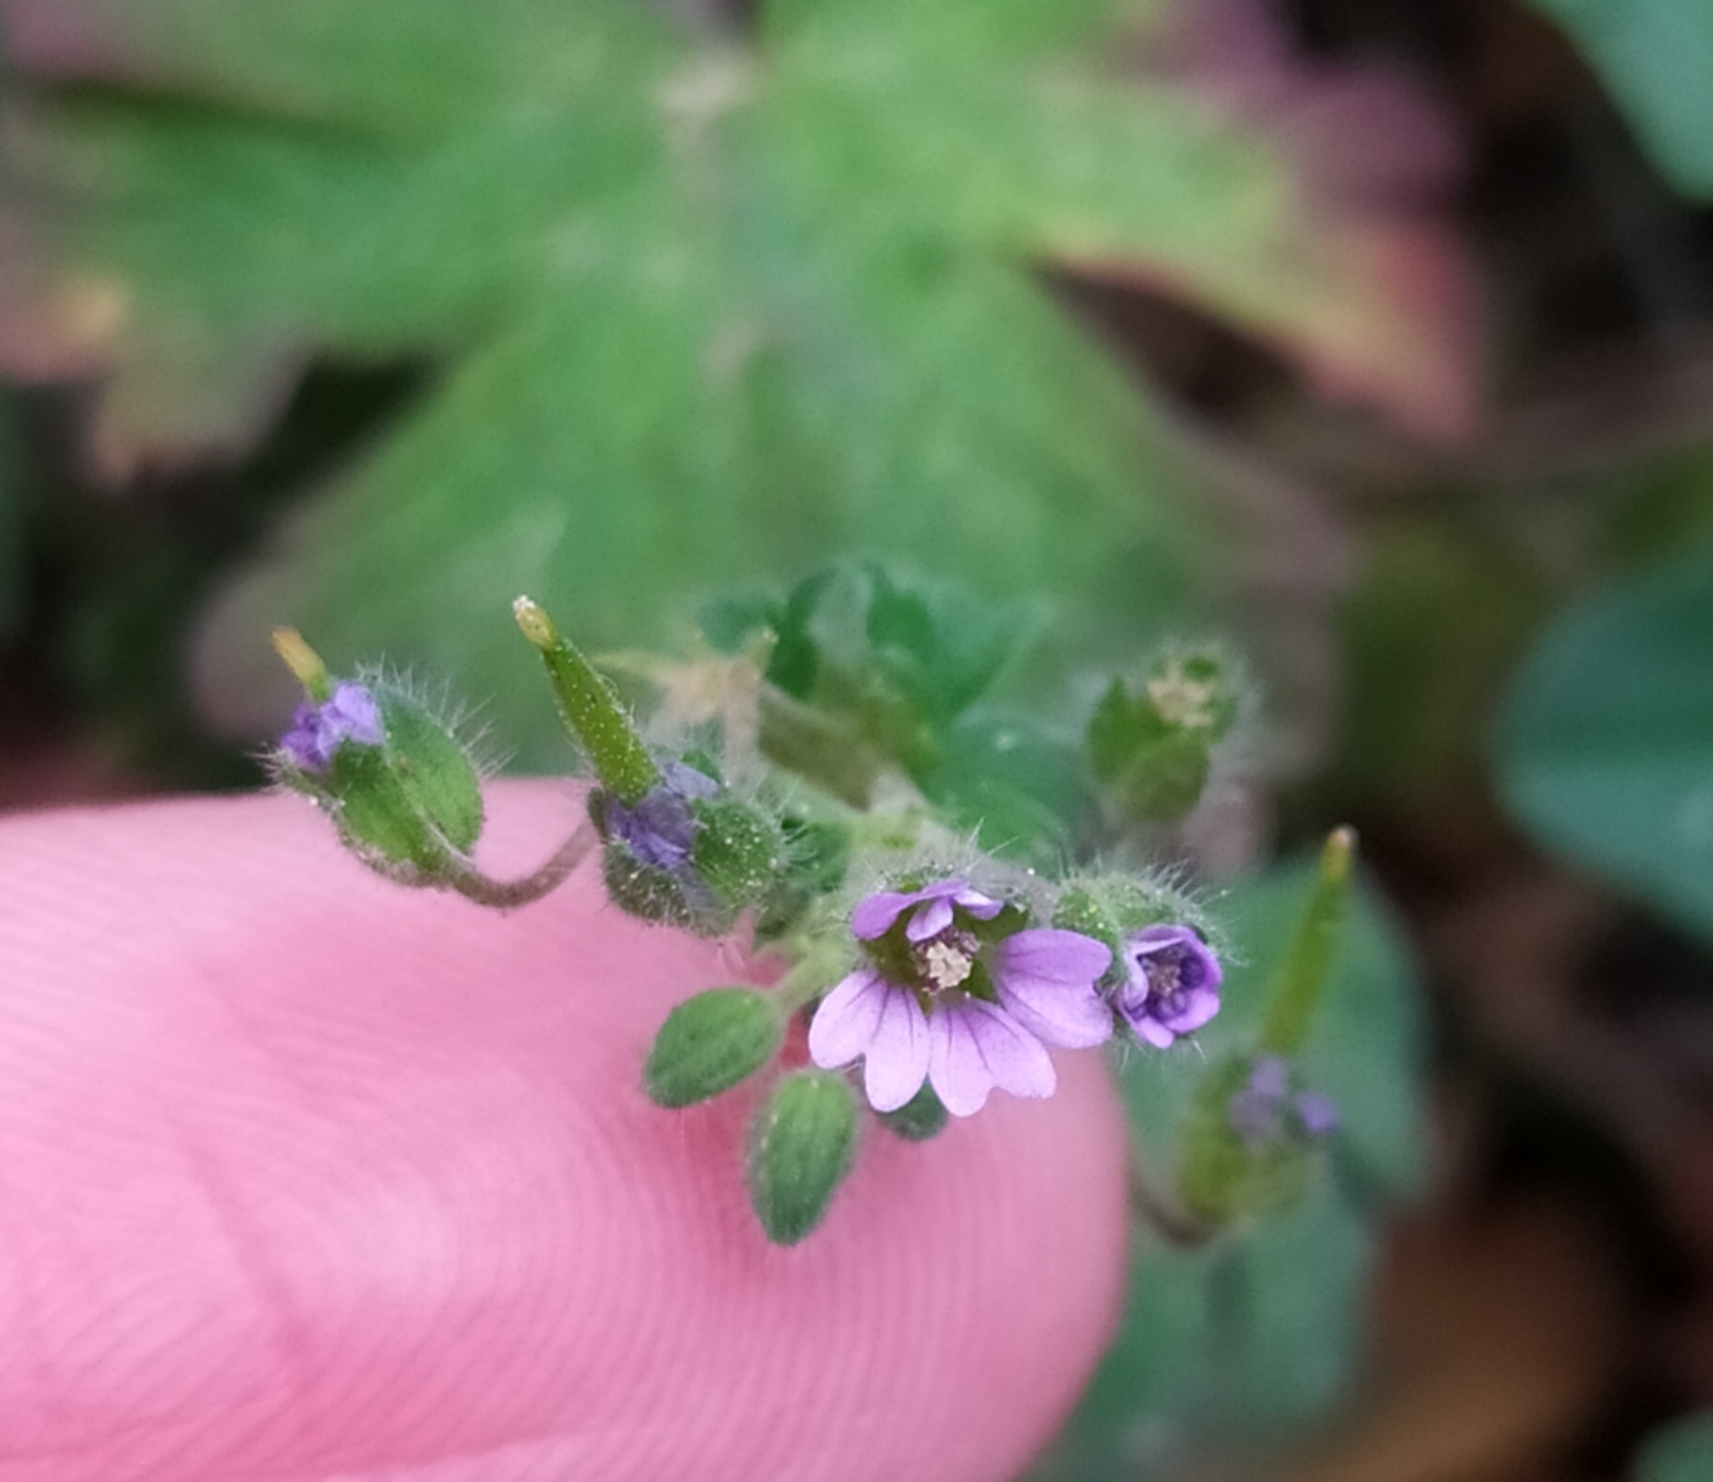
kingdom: Plantae
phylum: Tracheophyta
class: Magnoliopsida
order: Geraniales
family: Geraniaceae
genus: Geranium
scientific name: Geranium pusillum
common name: Small geranium
